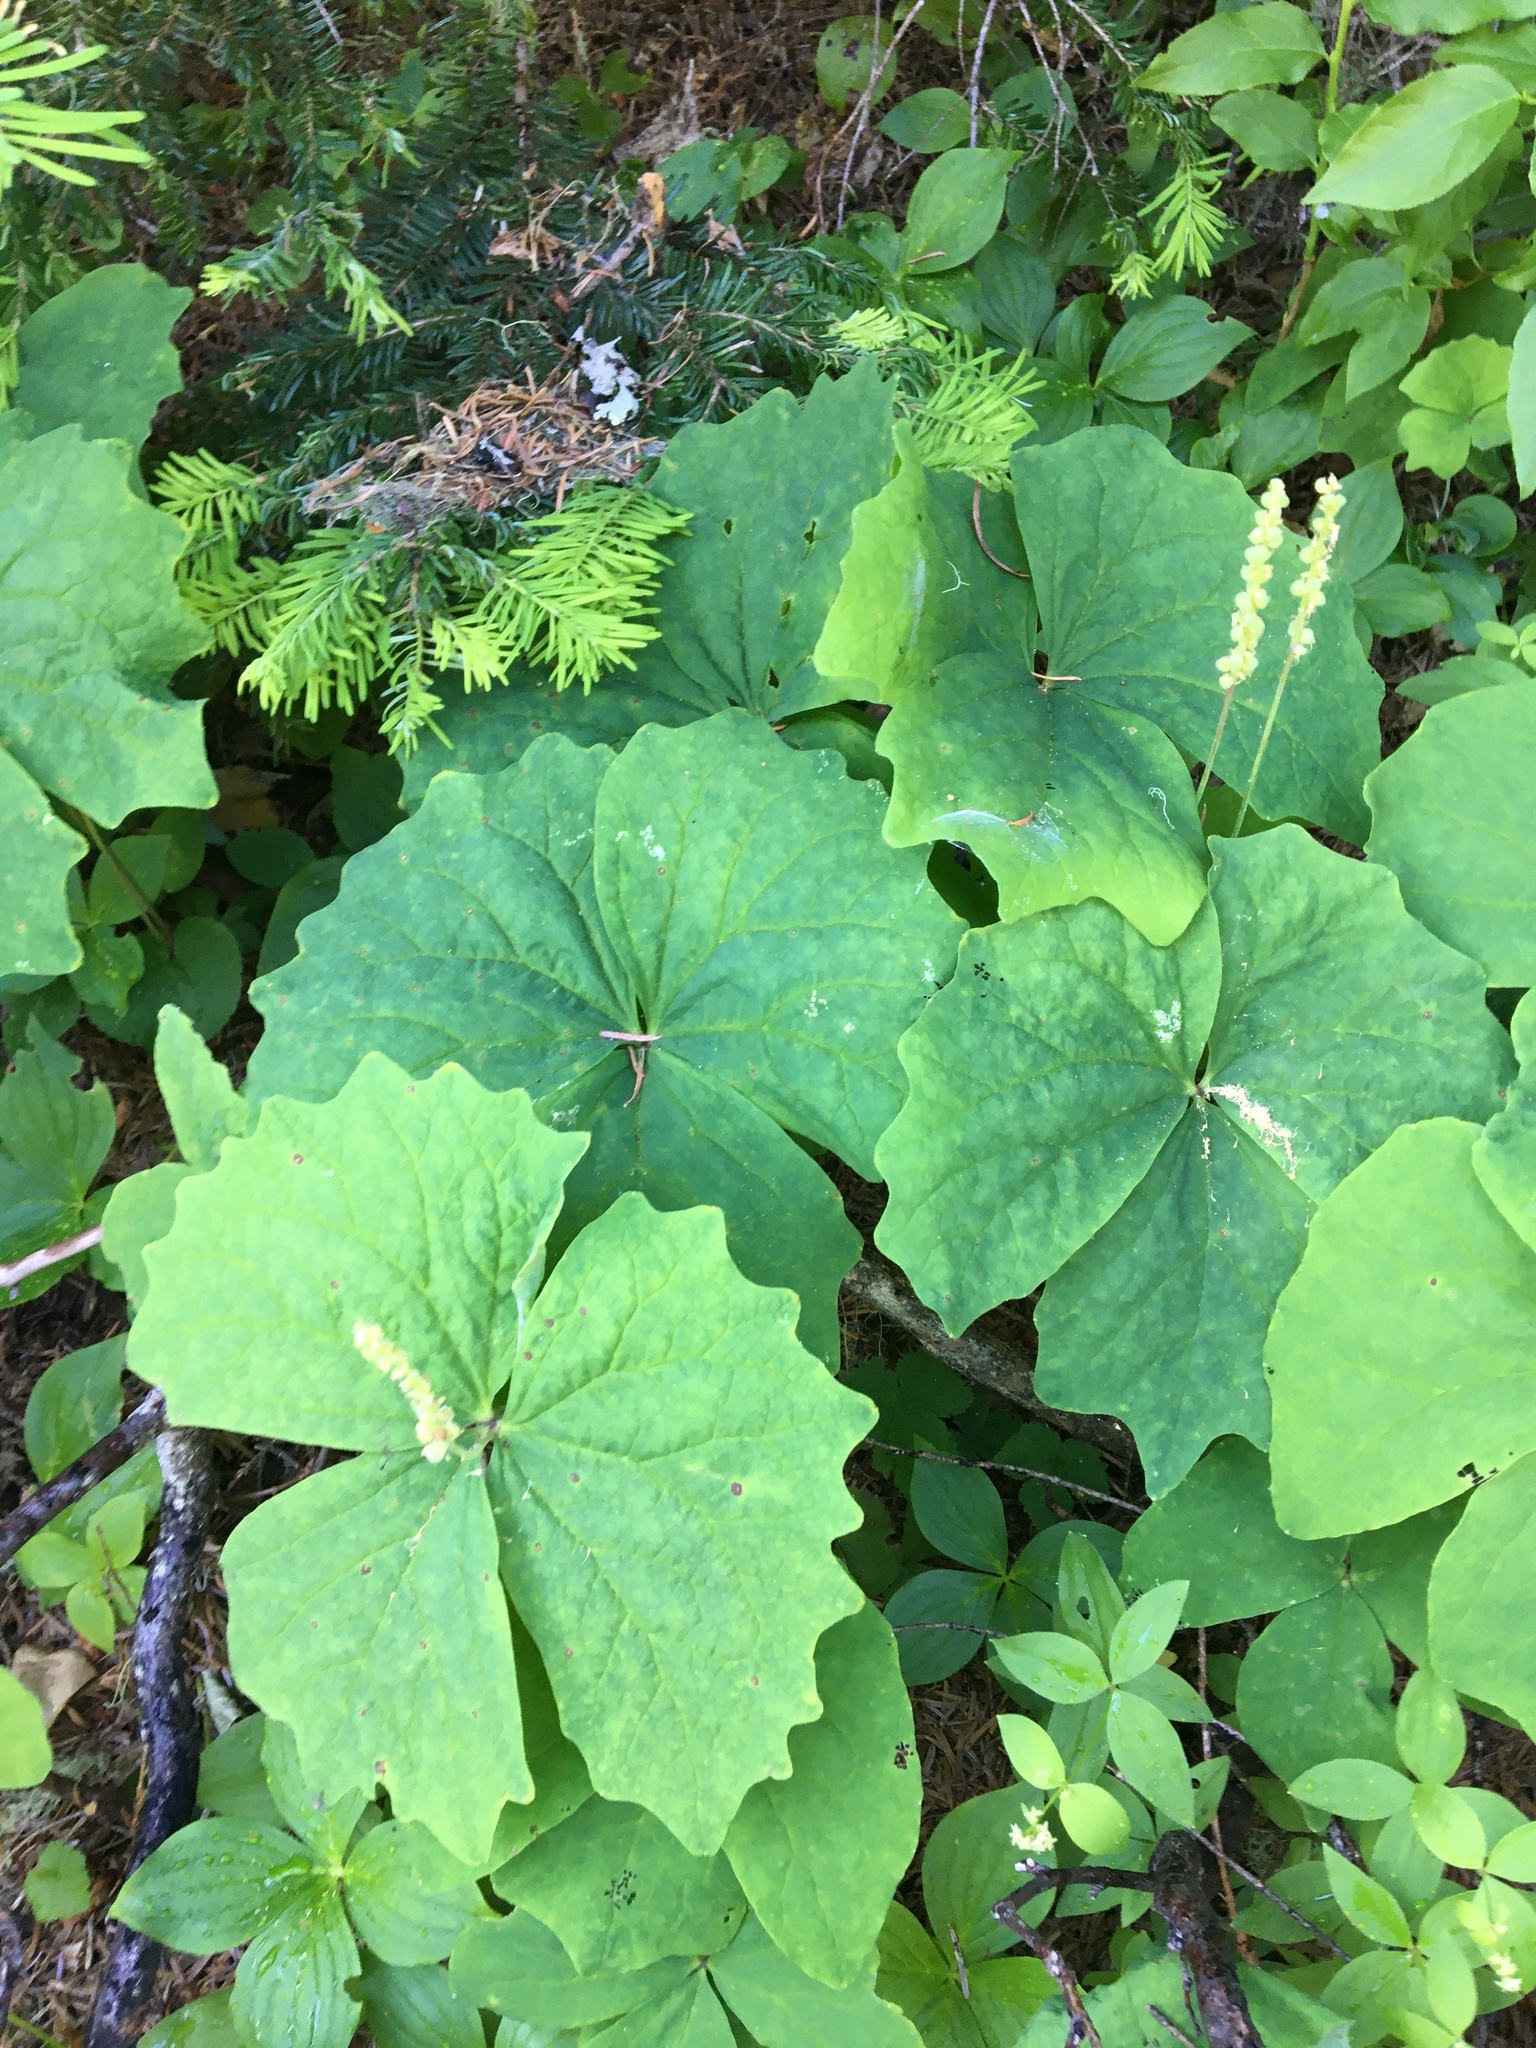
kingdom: Plantae
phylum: Tracheophyta
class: Magnoliopsida
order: Ranunculales
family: Berberidaceae
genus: Achlys
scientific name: Achlys triphylla
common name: Vanilla-leaf
